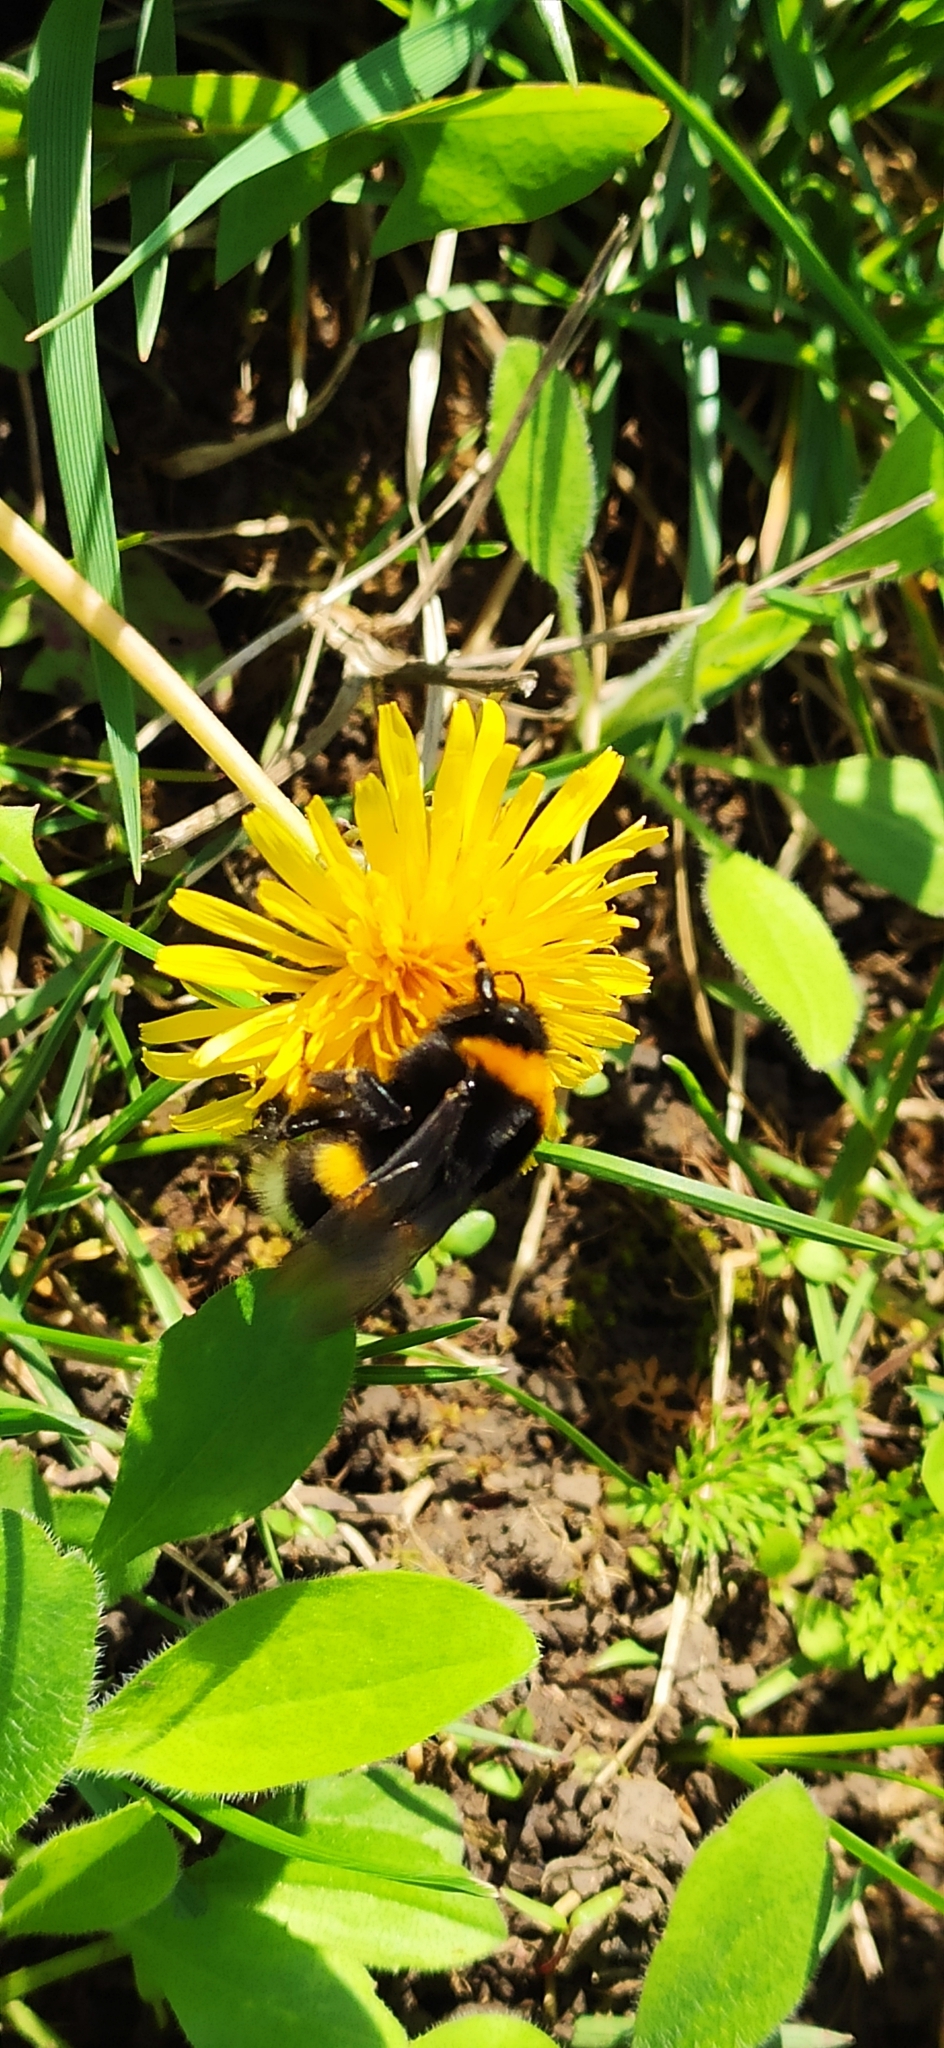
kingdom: Animalia
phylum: Arthropoda
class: Insecta
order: Hymenoptera
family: Apidae
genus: Bombus
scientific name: Bombus
